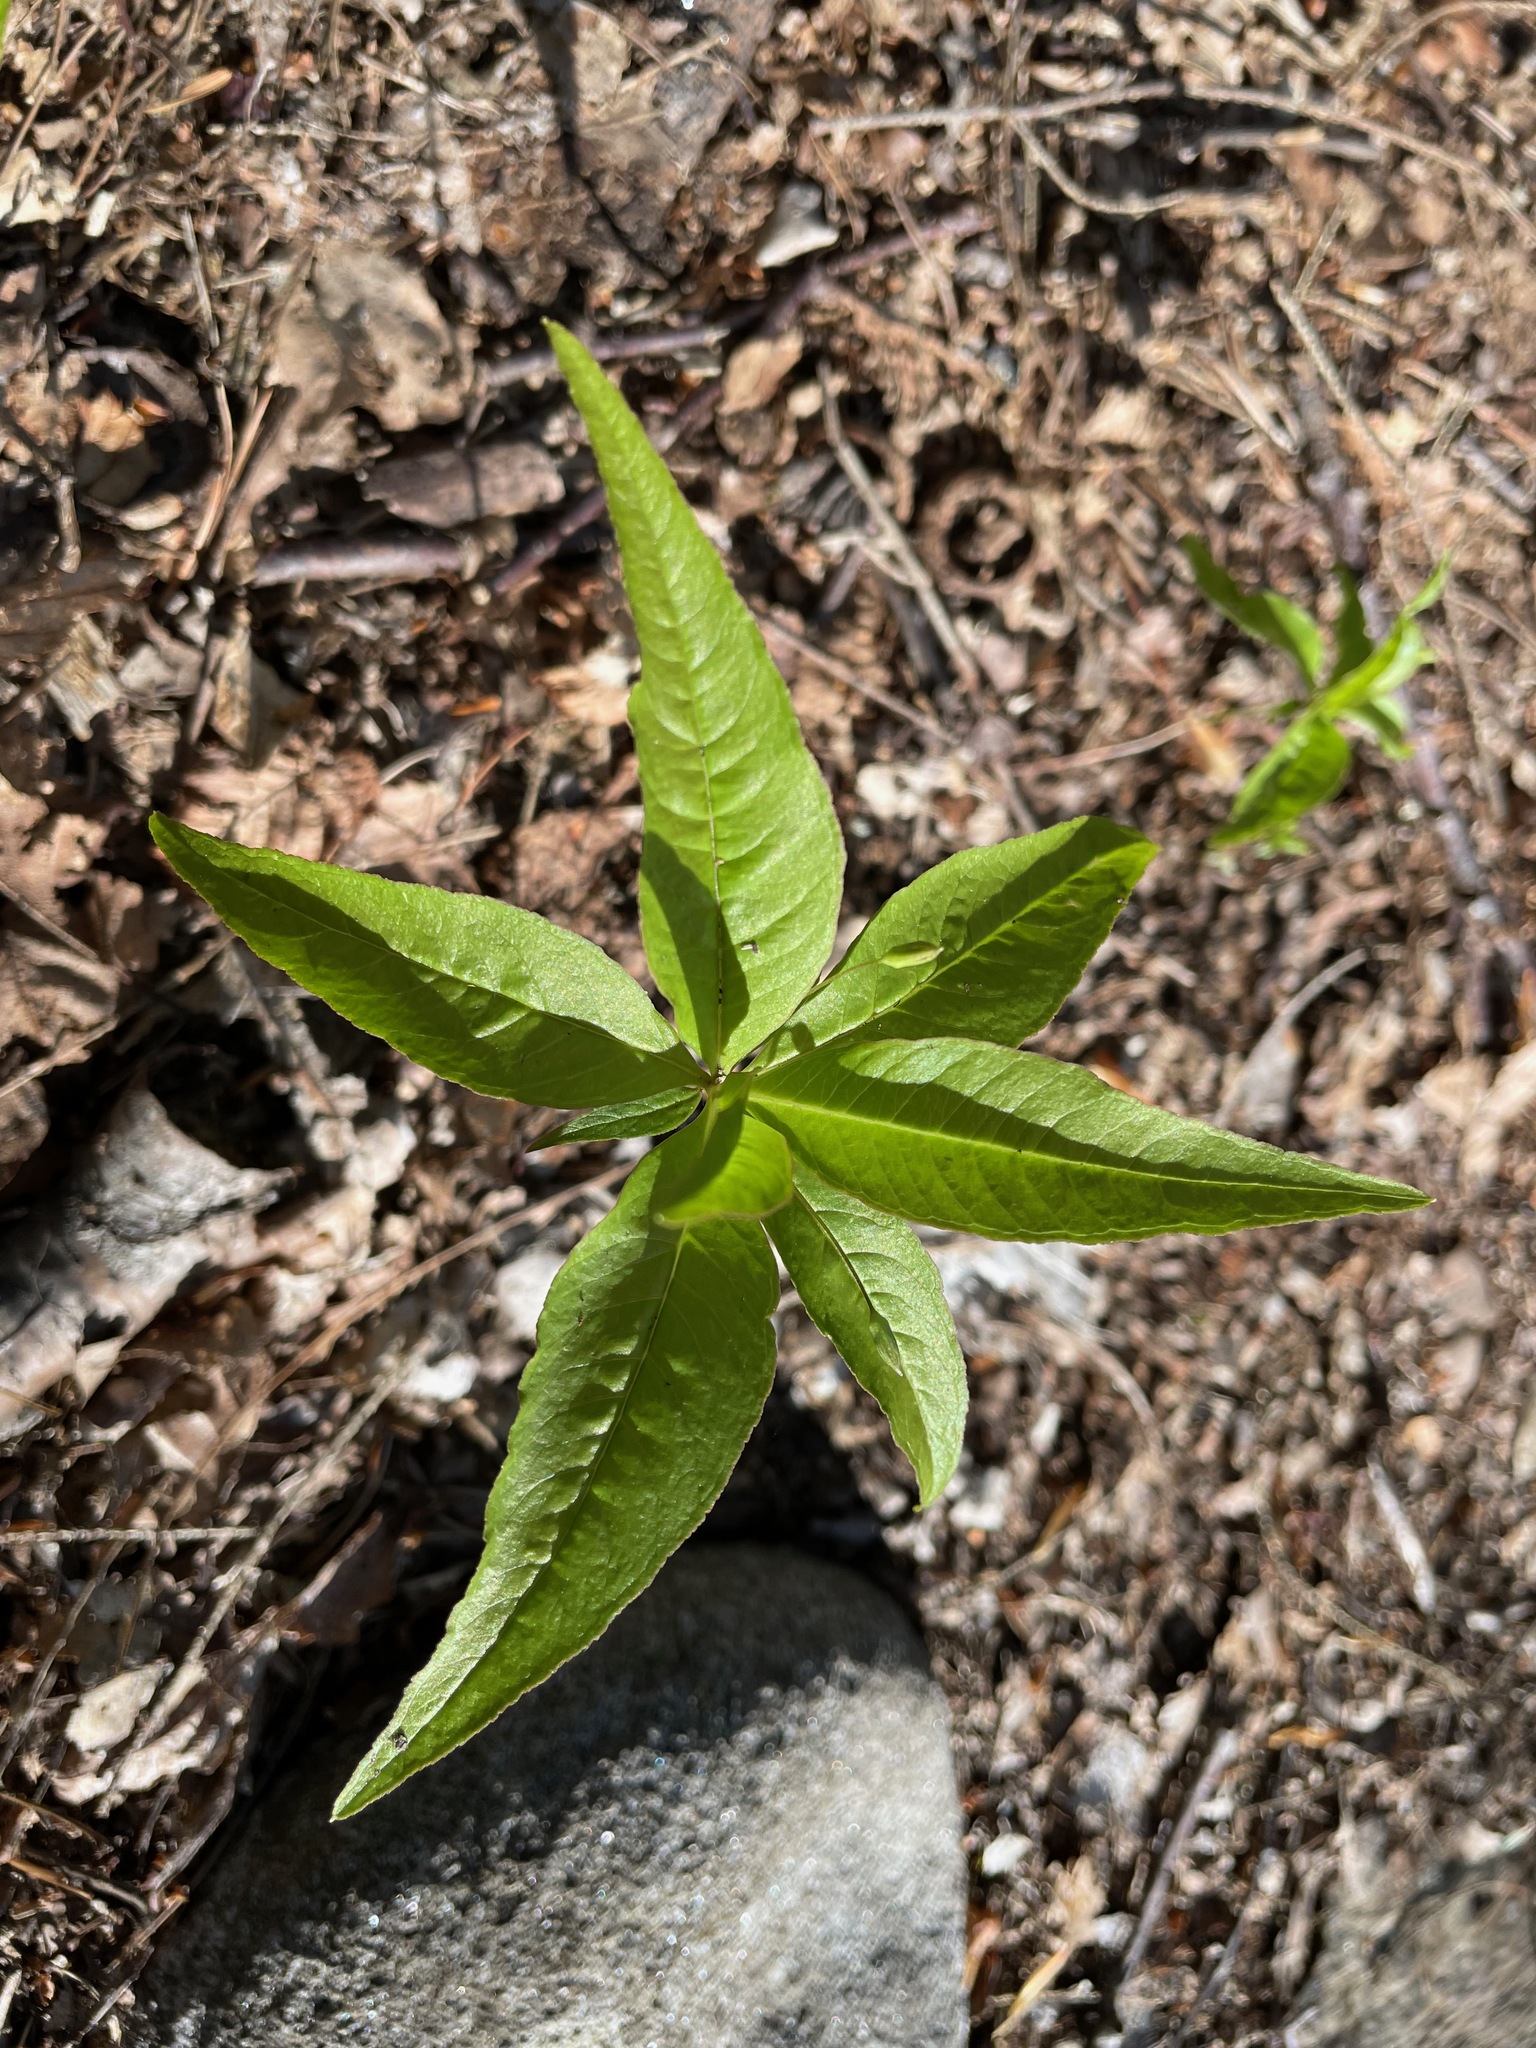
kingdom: Plantae
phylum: Tracheophyta
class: Magnoliopsida
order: Ericales
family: Primulaceae
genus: Lysimachia
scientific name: Lysimachia borealis
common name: American starflower
